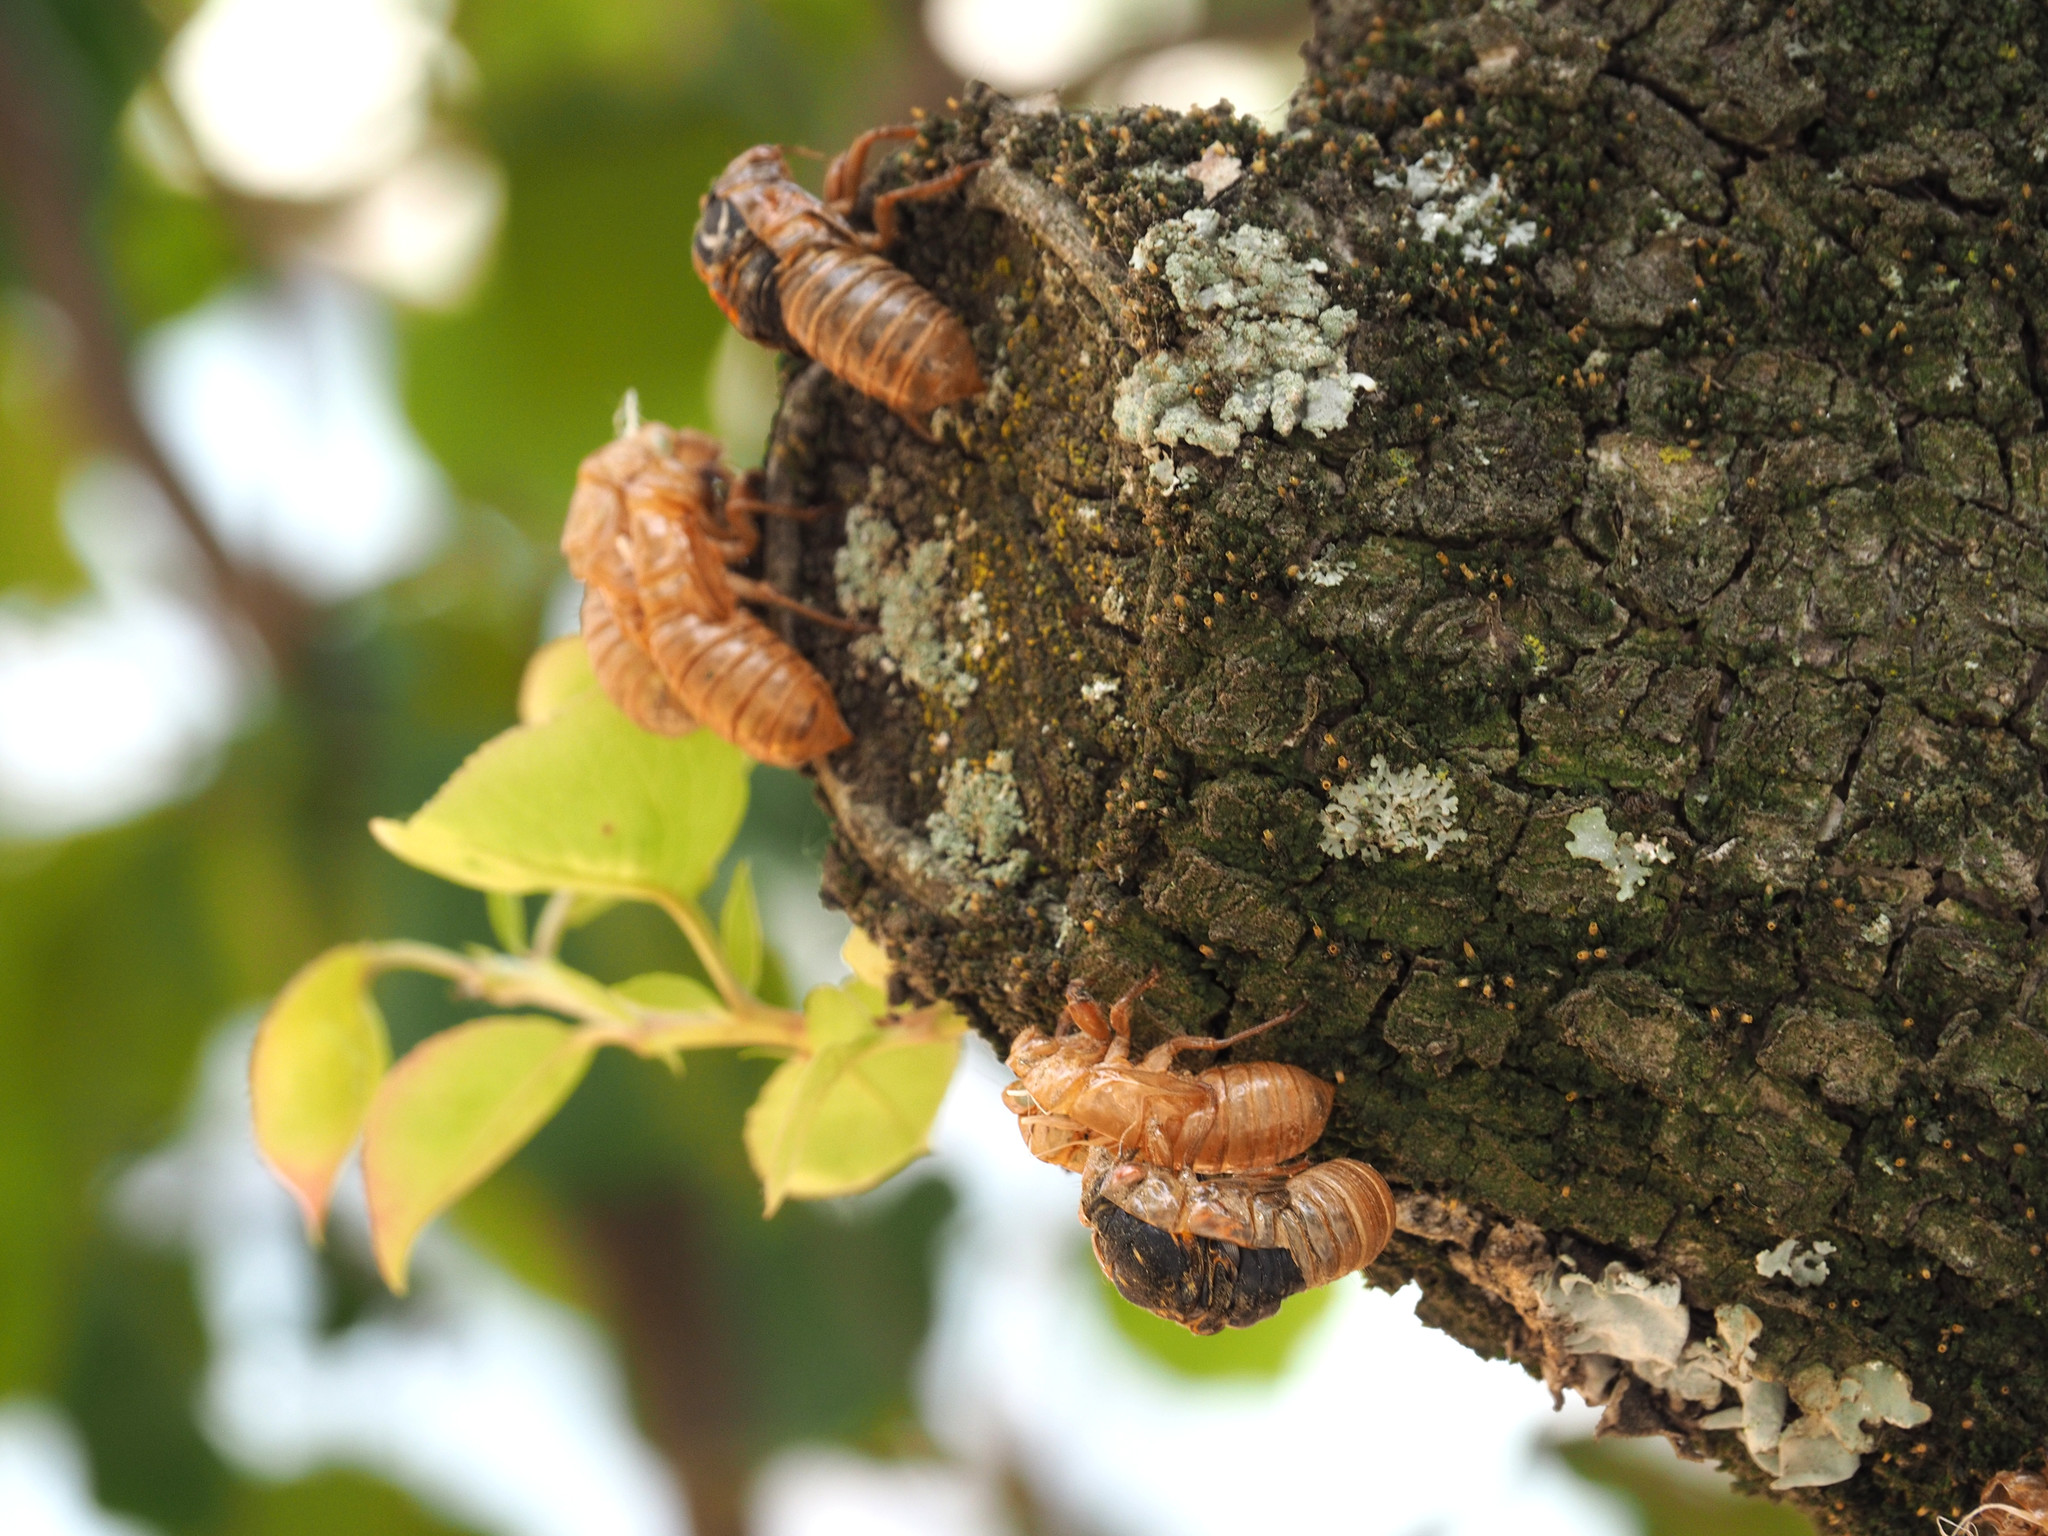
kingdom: Animalia
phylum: Arthropoda
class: Insecta
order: Hemiptera
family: Cicadidae
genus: Magicicada
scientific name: Magicicada
